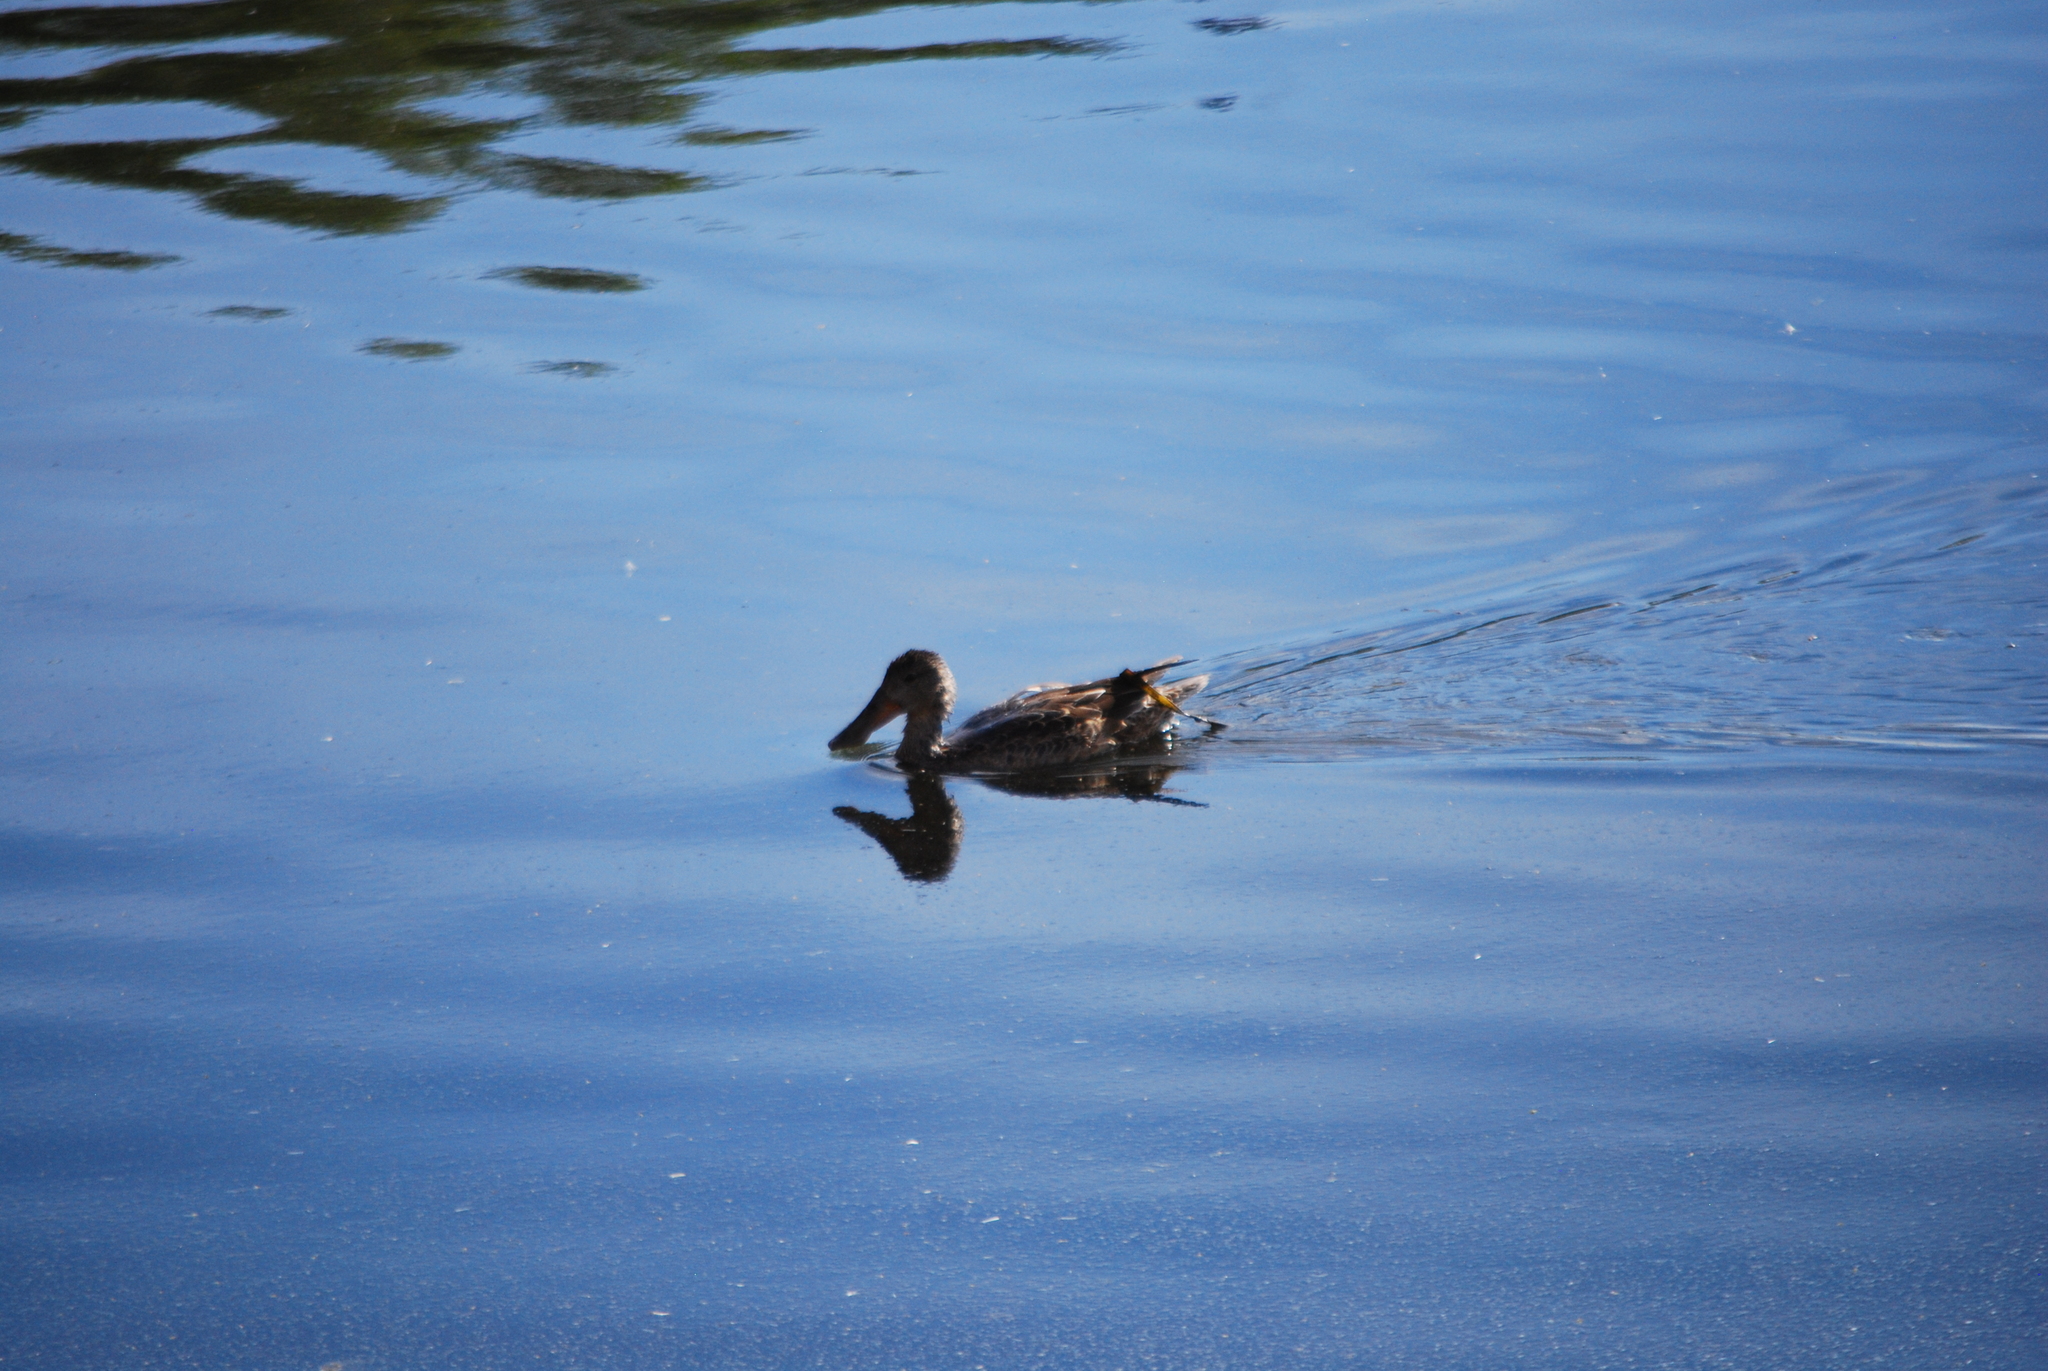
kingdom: Animalia
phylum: Chordata
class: Aves
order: Anseriformes
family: Anatidae
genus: Spatula
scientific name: Spatula clypeata
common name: Northern shoveler
